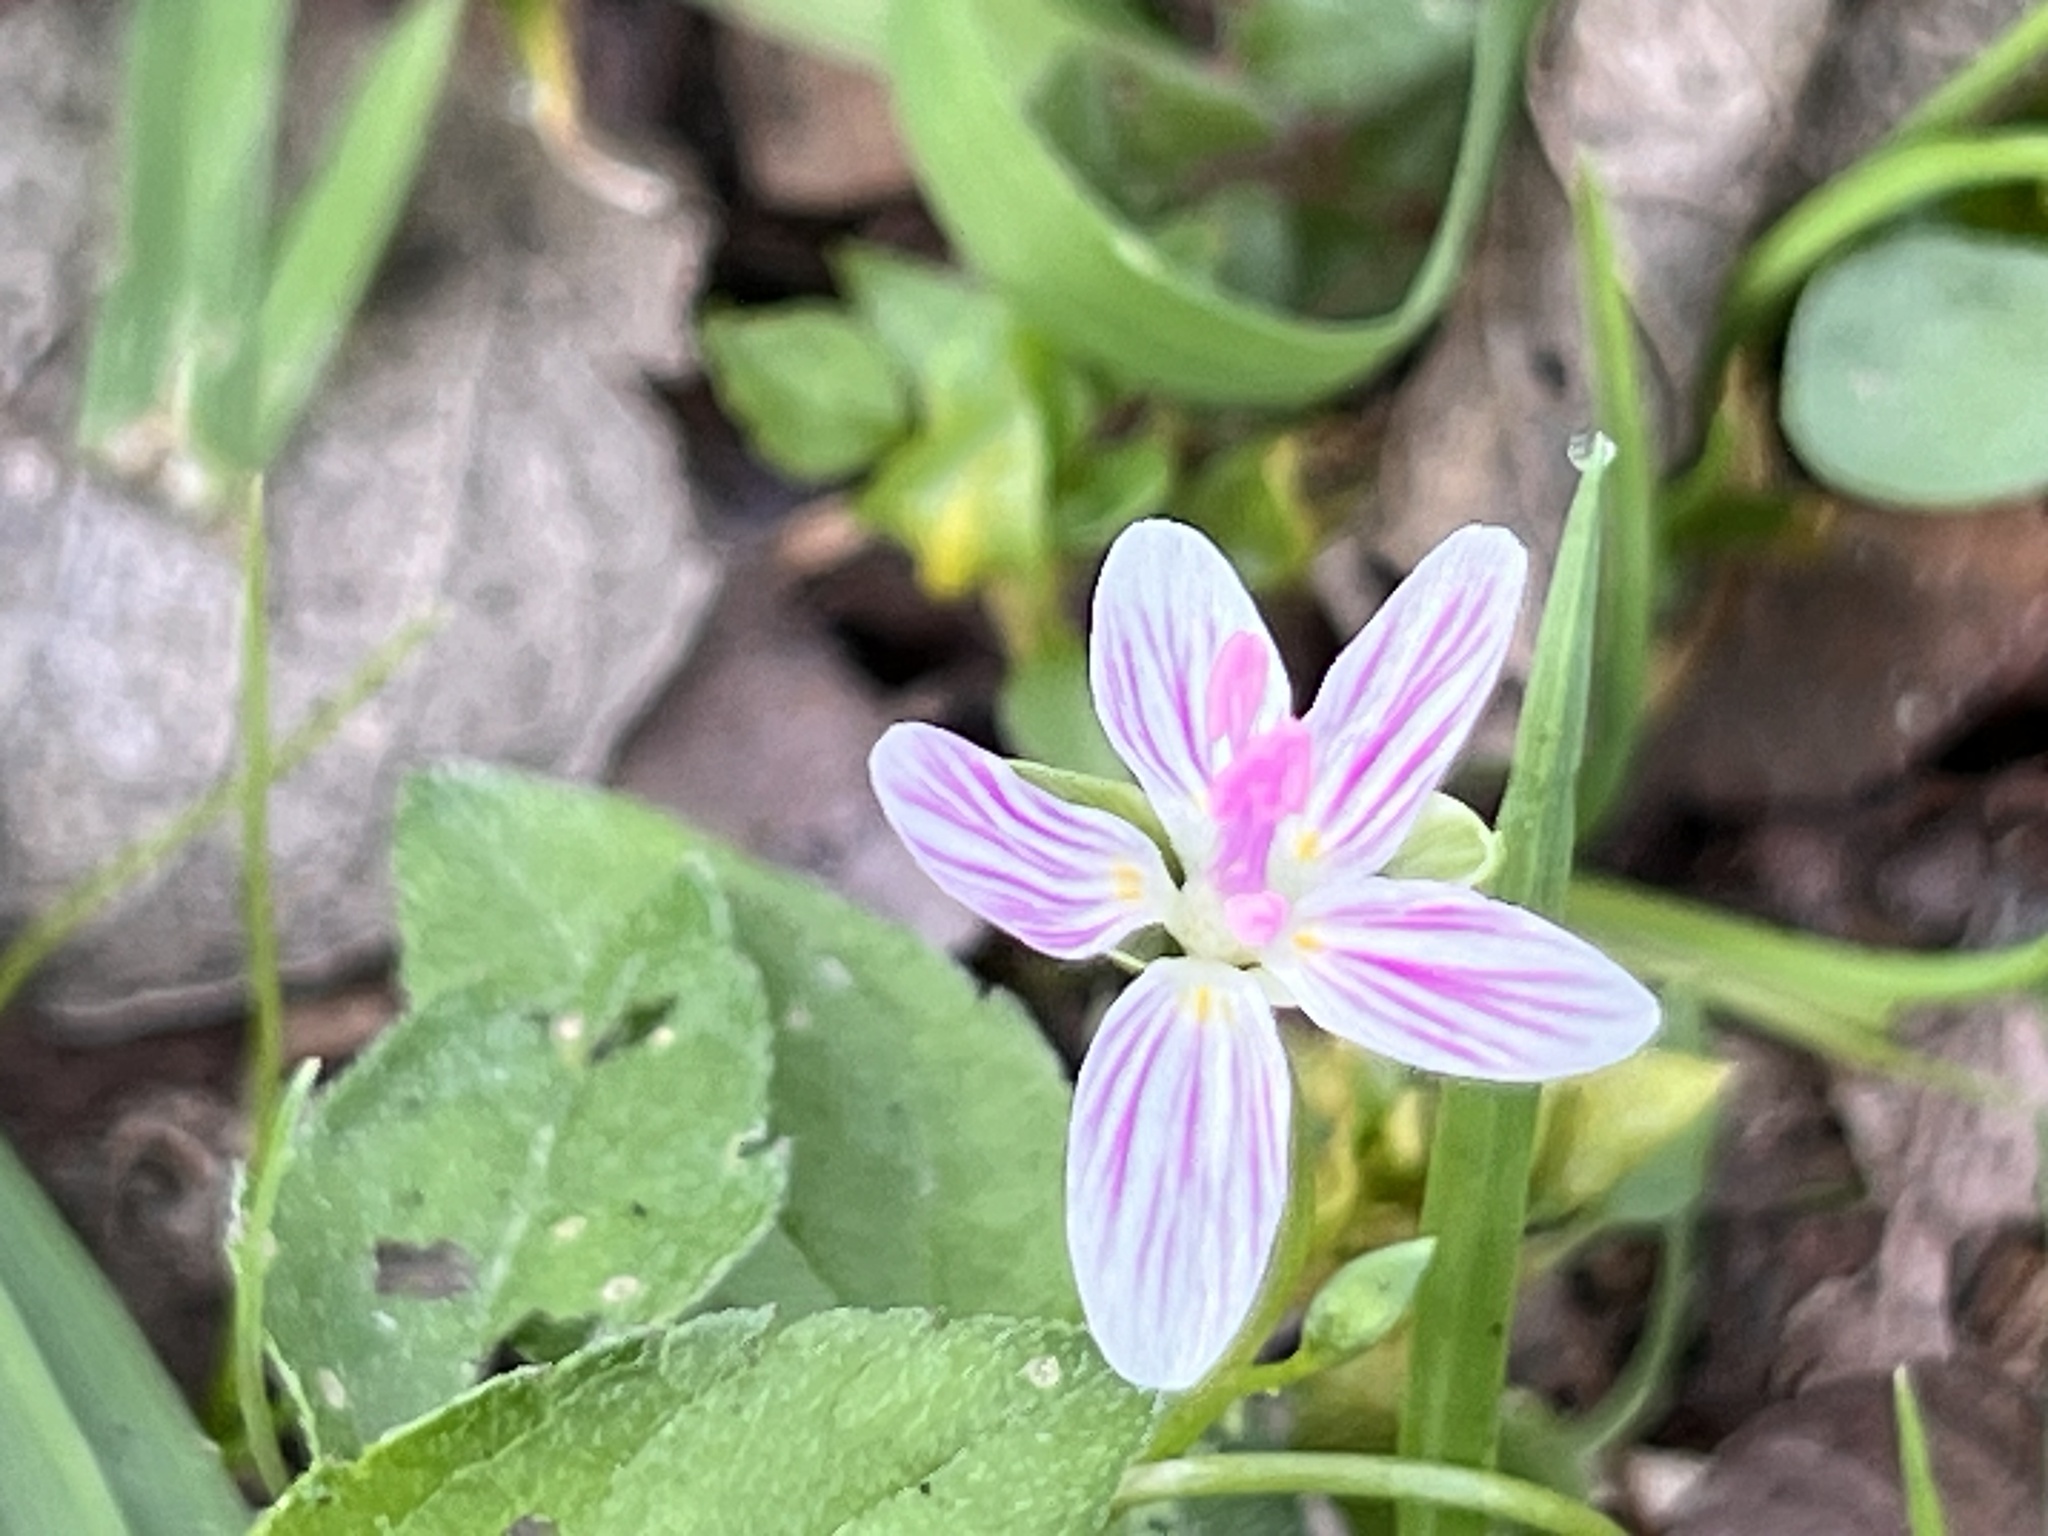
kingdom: Plantae
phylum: Tracheophyta
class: Magnoliopsida
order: Caryophyllales
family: Montiaceae
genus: Claytonia
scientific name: Claytonia virginica
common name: Virginia springbeauty
